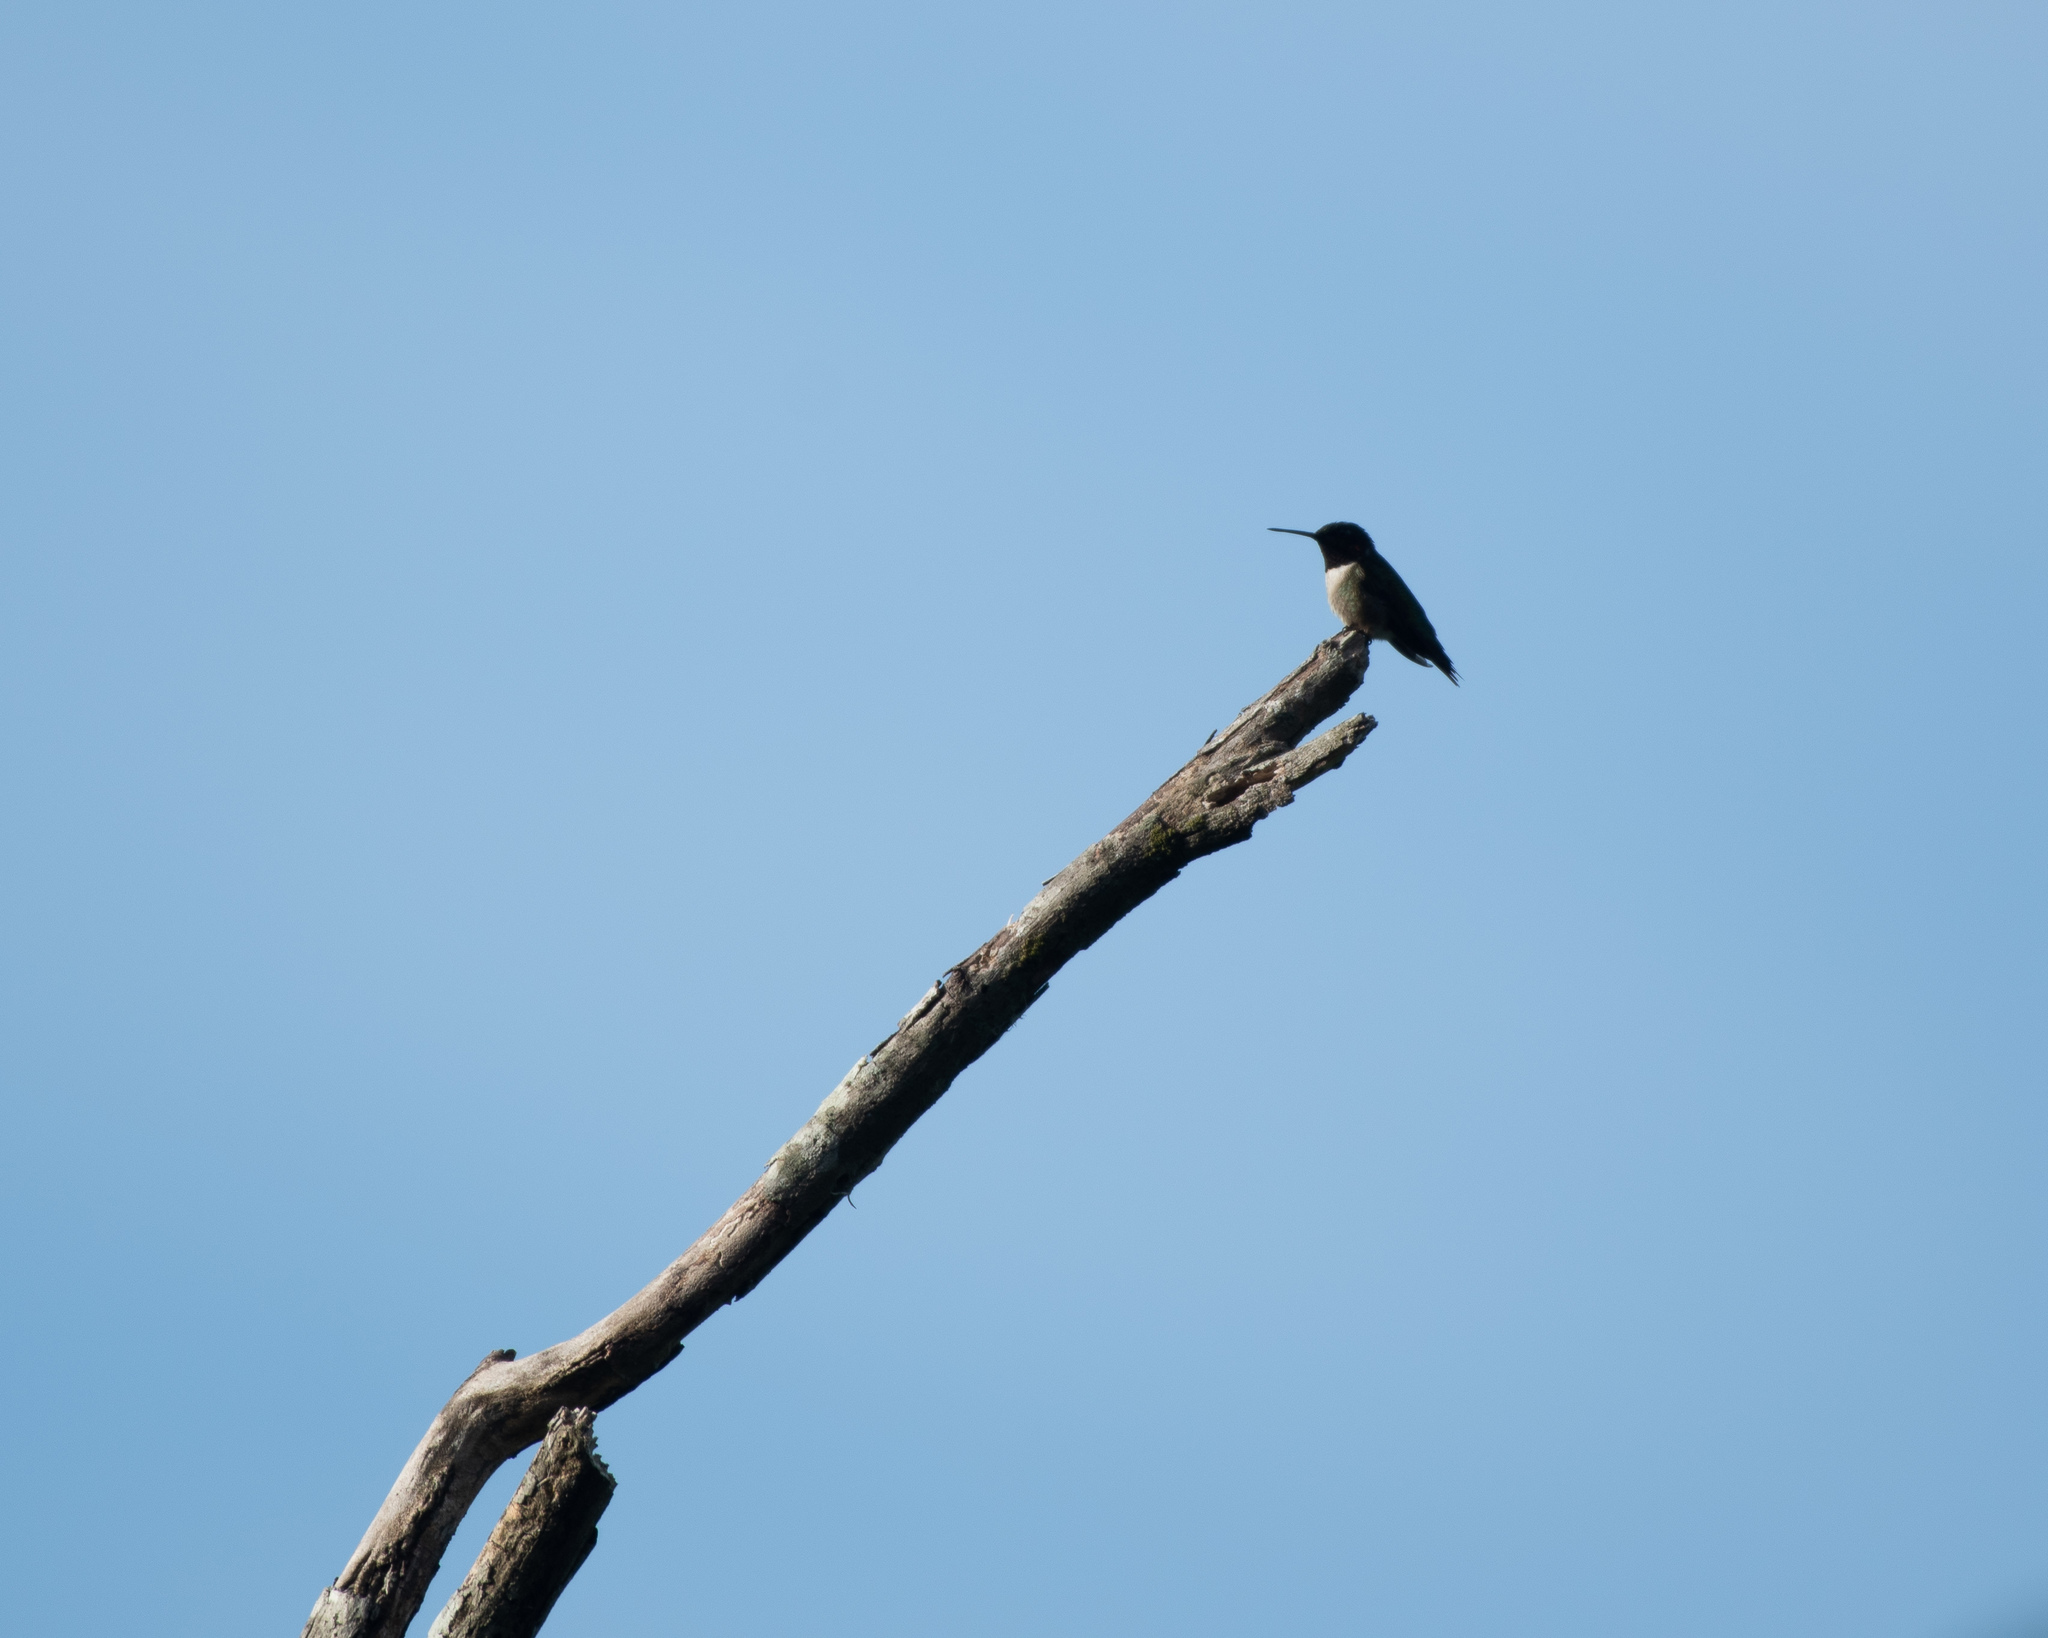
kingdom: Animalia
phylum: Chordata
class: Aves
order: Apodiformes
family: Trochilidae
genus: Archilochus
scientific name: Archilochus colubris
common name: Ruby-throated hummingbird
